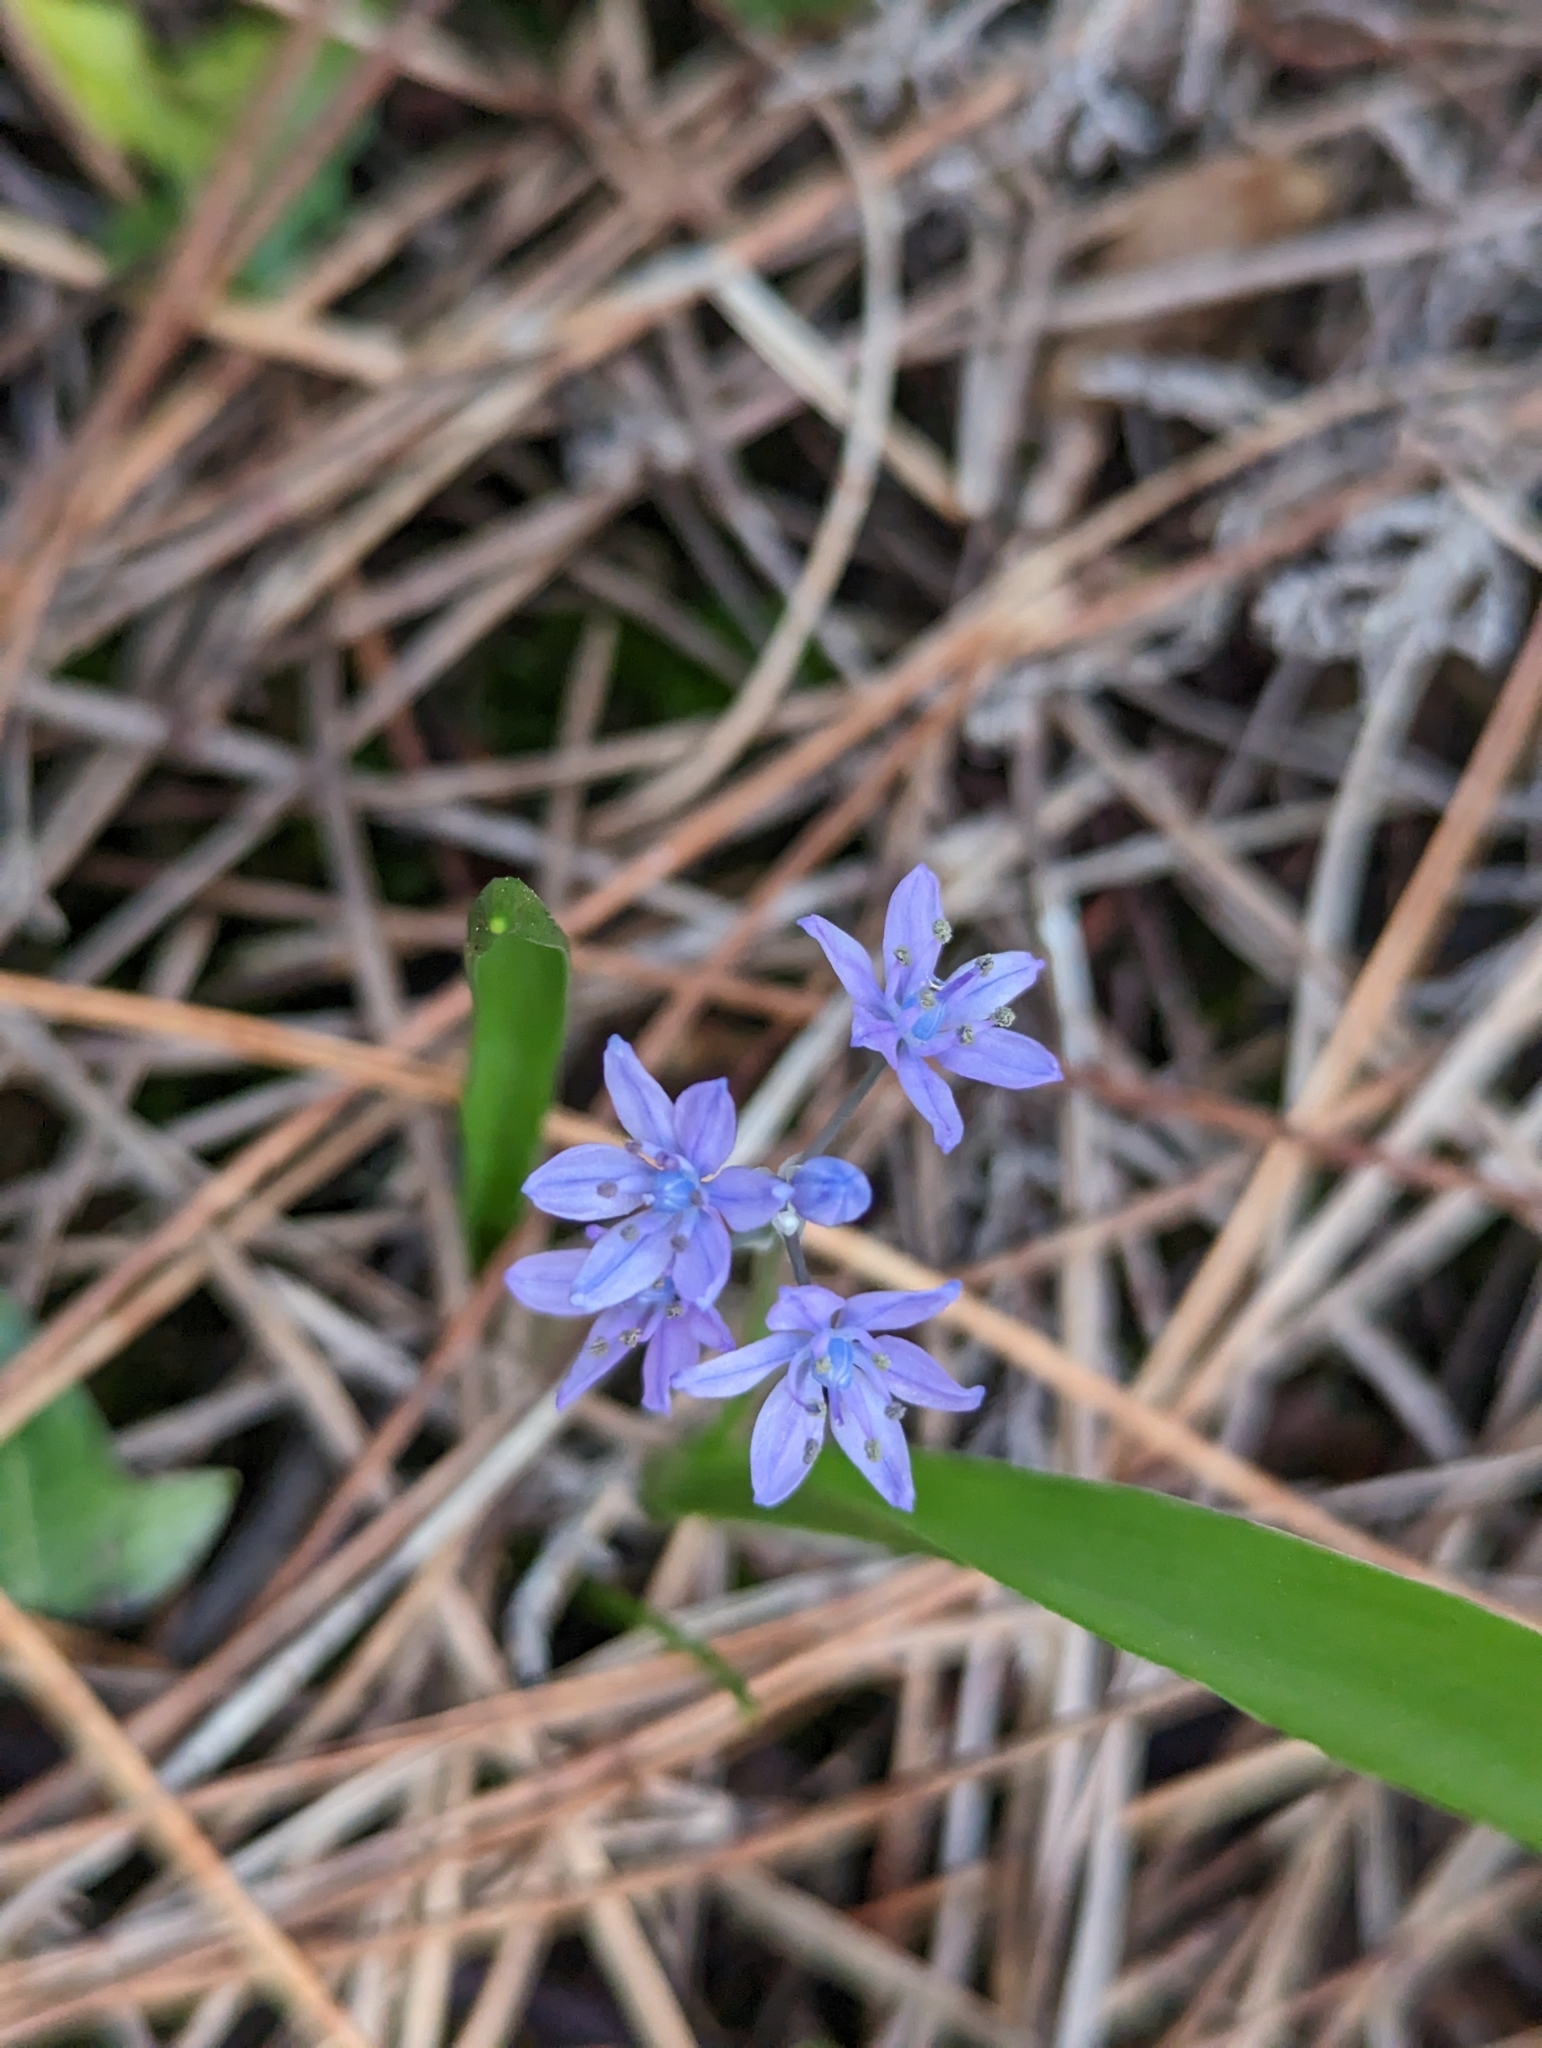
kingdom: Plantae
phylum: Tracheophyta
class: Liliopsida
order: Asparagales
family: Asparagaceae
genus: Scilla
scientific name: Scilla monophyllos
